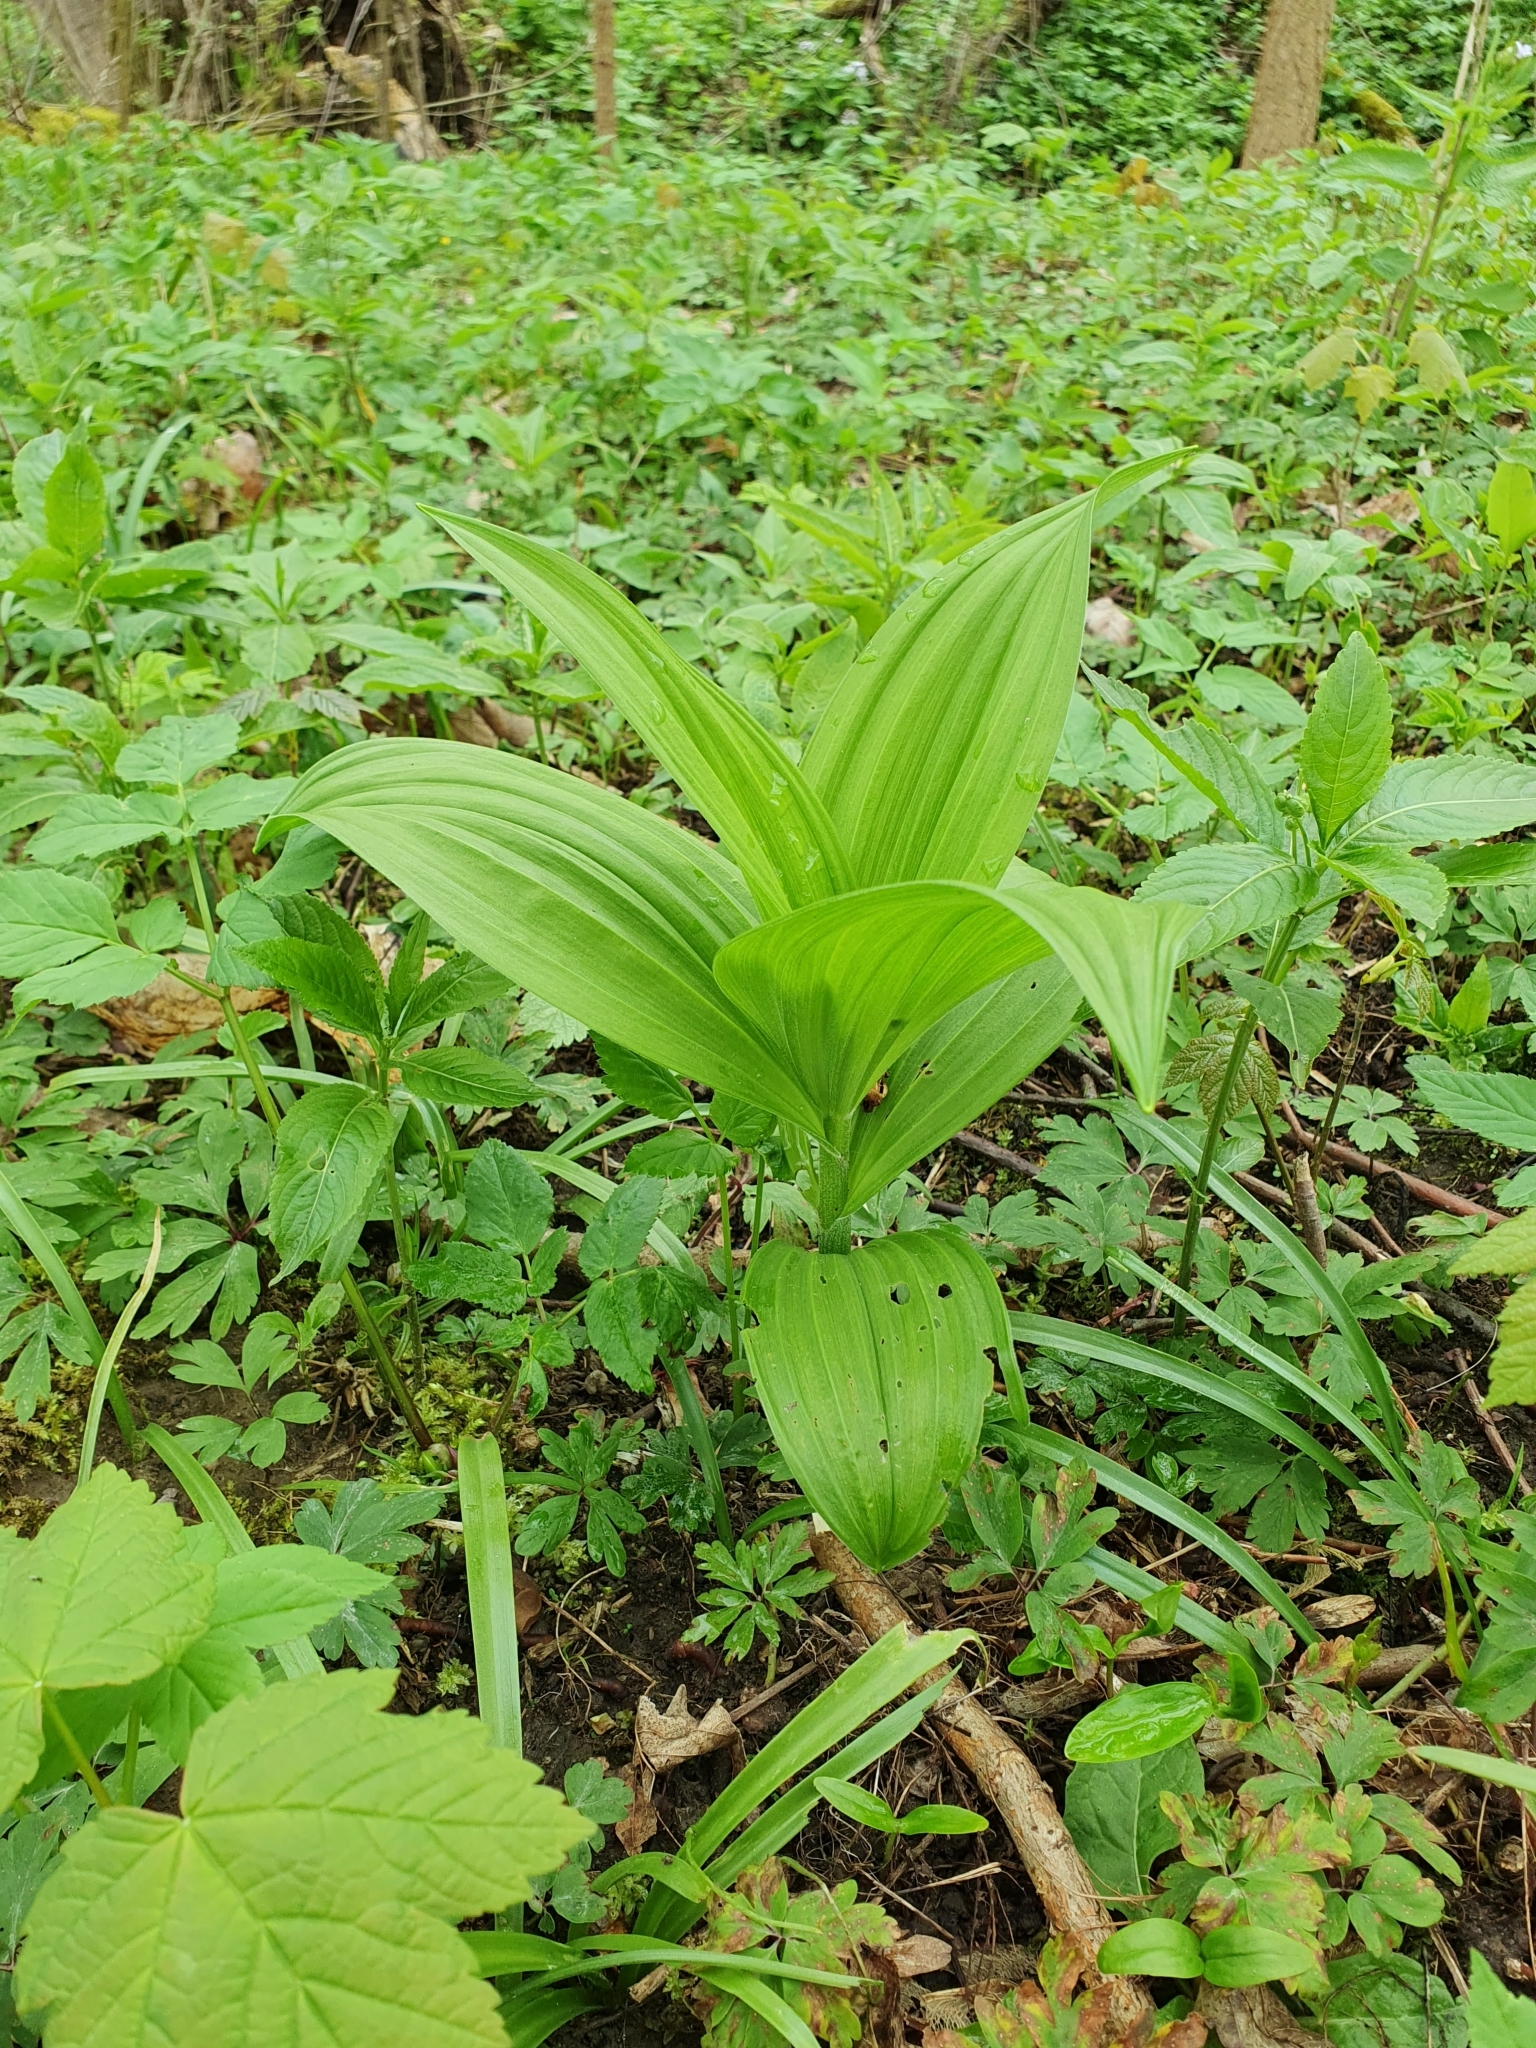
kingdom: Plantae
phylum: Tracheophyta
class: Liliopsida
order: Liliales
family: Melanthiaceae
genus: Veratrum
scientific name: Veratrum lobelianum
